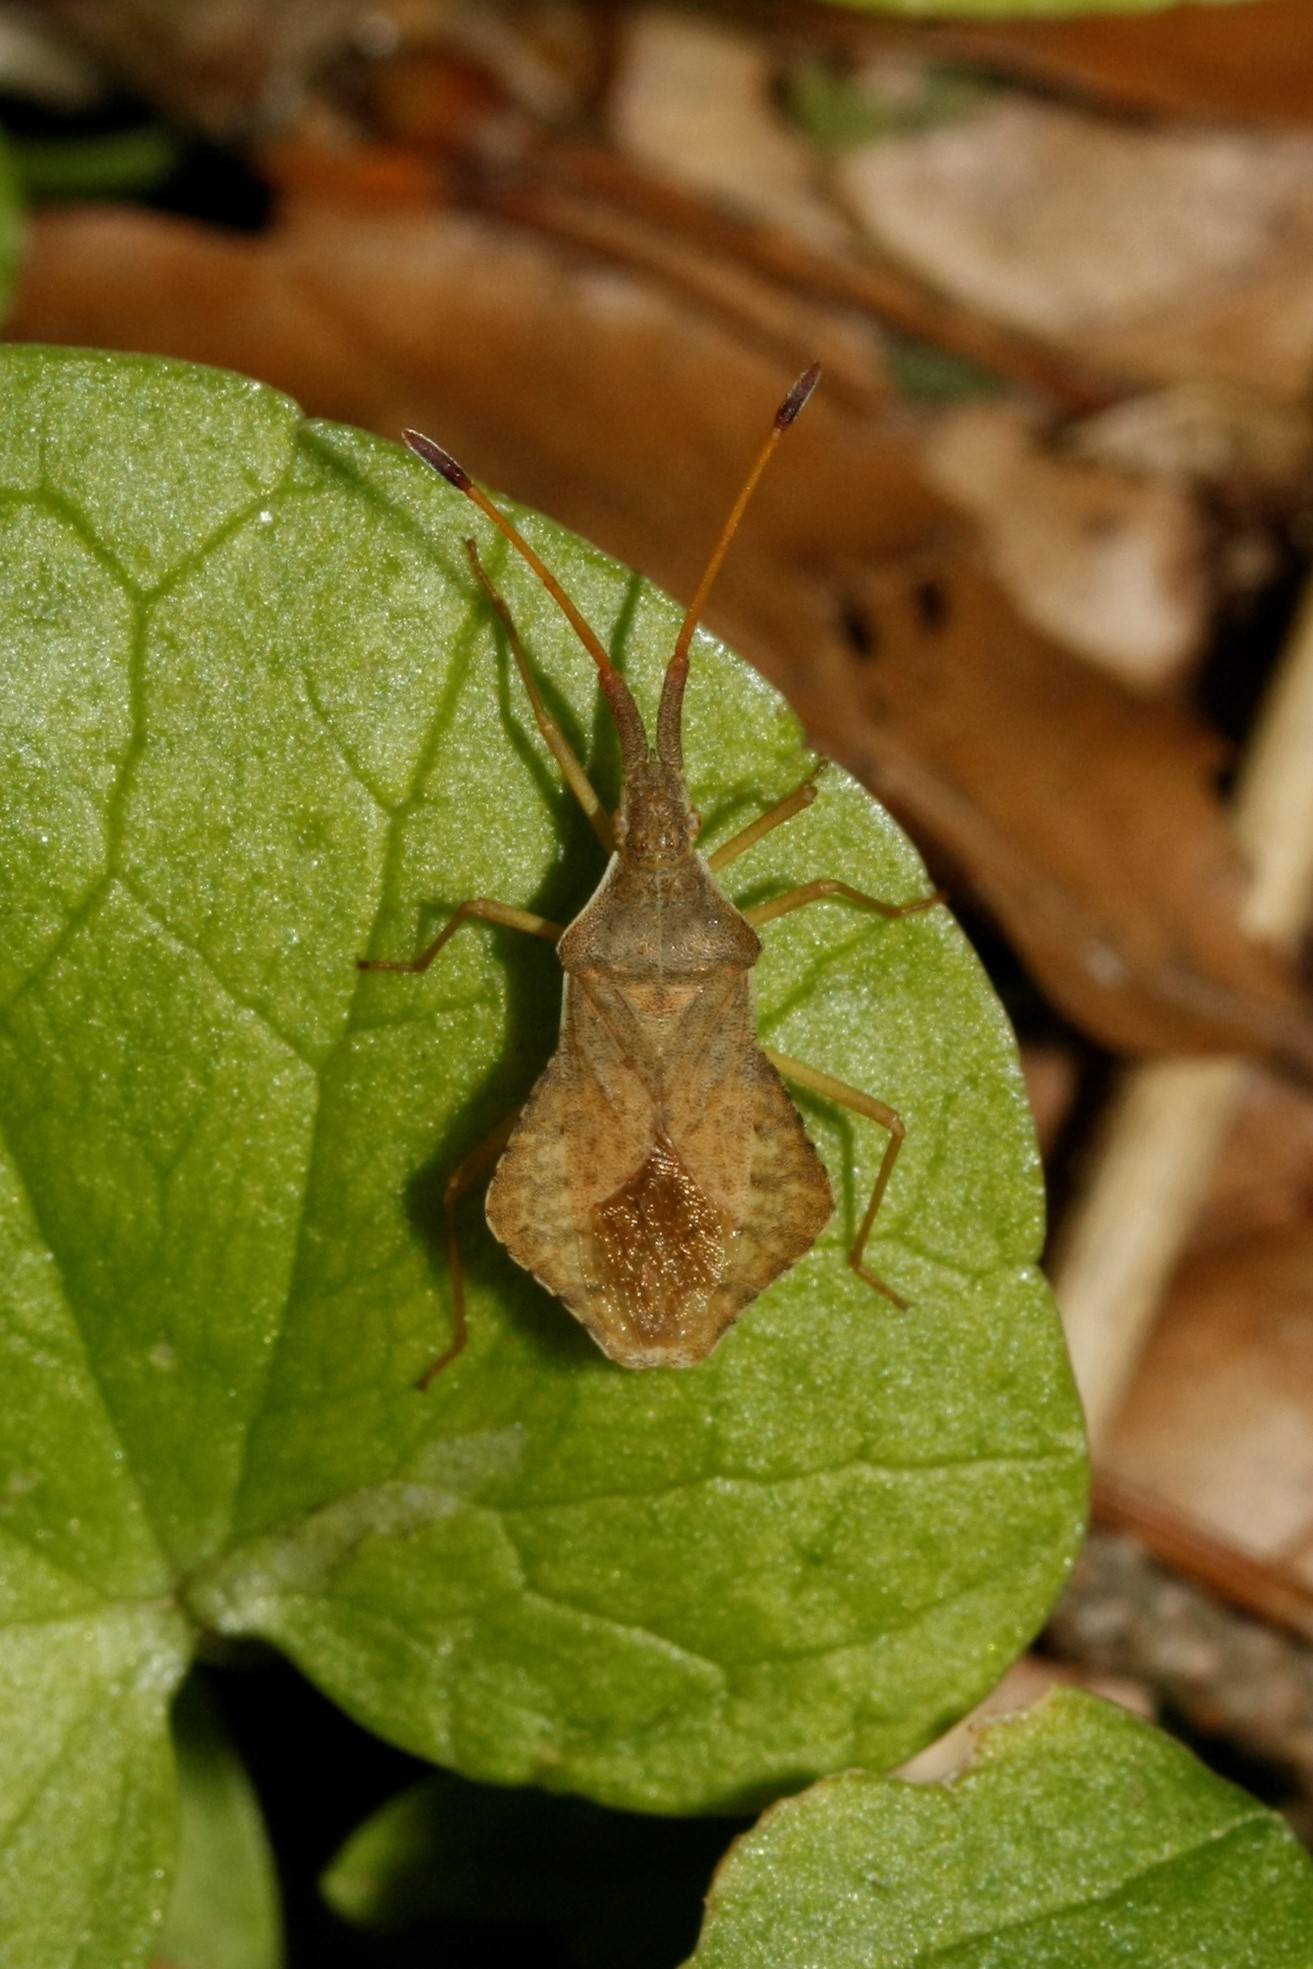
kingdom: Animalia
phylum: Arthropoda
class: Insecta
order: Hemiptera
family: Coreidae
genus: Syromastus
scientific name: Syromastus rhombeus
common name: Rhombic leatherbug
